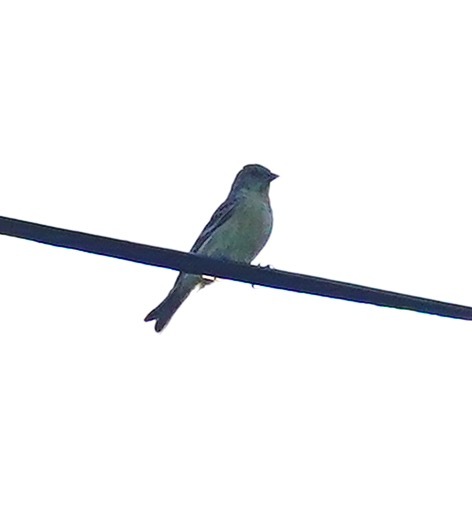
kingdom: Animalia
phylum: Chordata
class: Aves
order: Passeriformes
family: Fringillidae
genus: Spinus
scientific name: Spinus psaltria
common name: Lesser goldfinch
